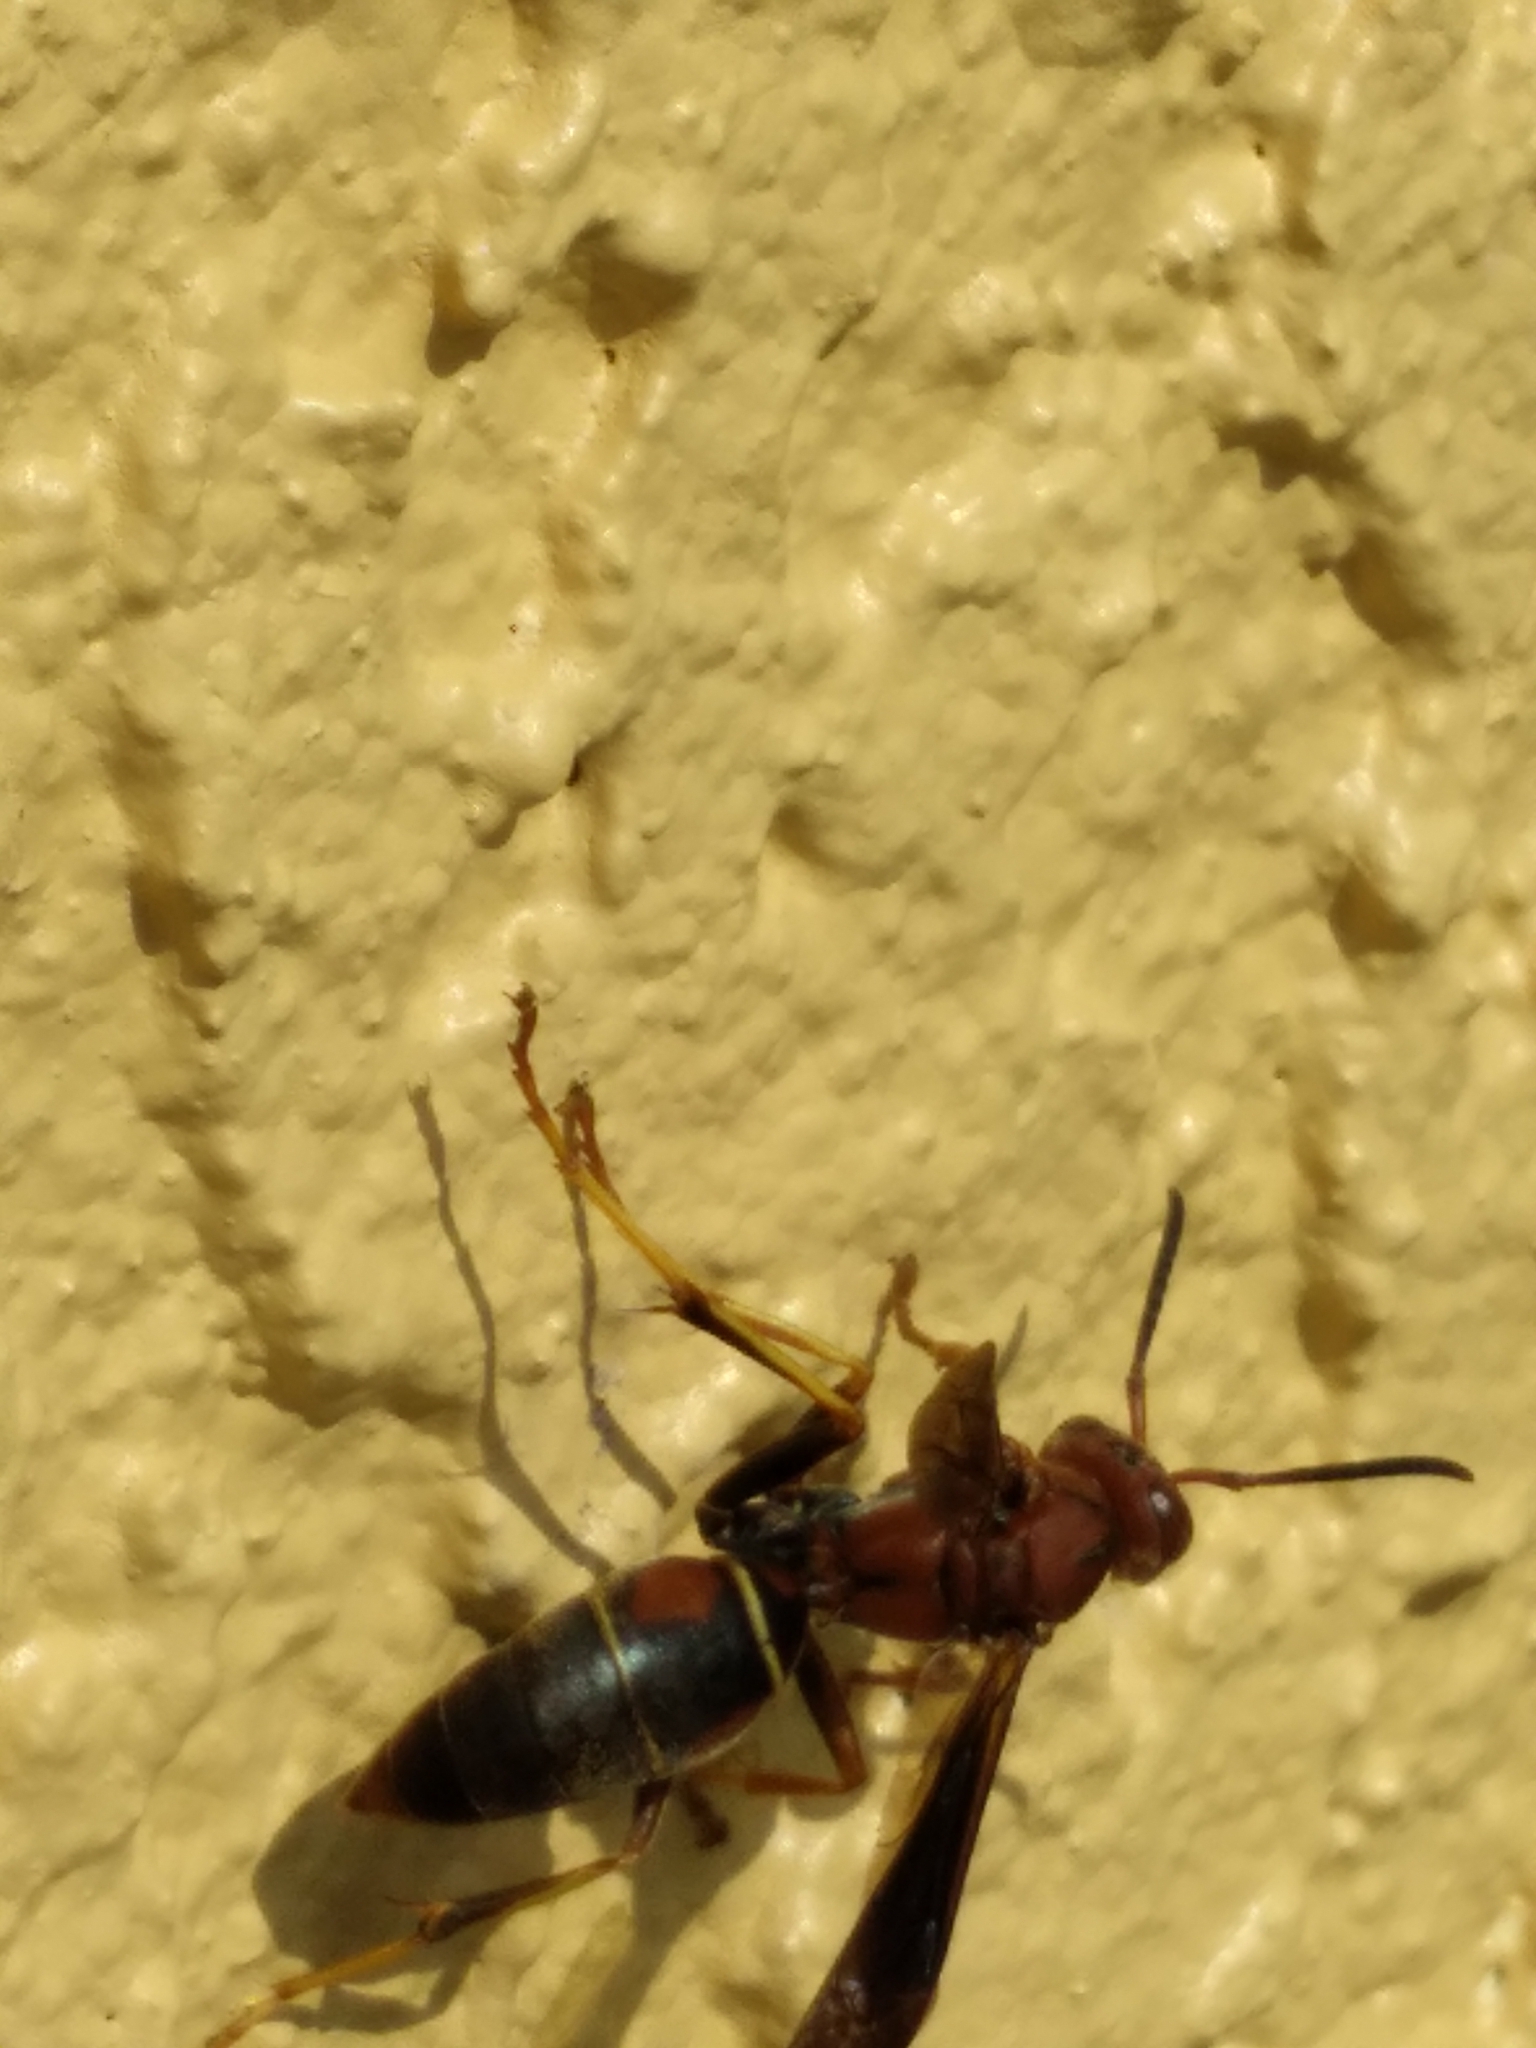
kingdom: Animalia
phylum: Arthropoda
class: Insecta
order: Hymenoptera
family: Eumenidae
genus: Polistes
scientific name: Polistes fuscatus
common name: Dark paper wasp
